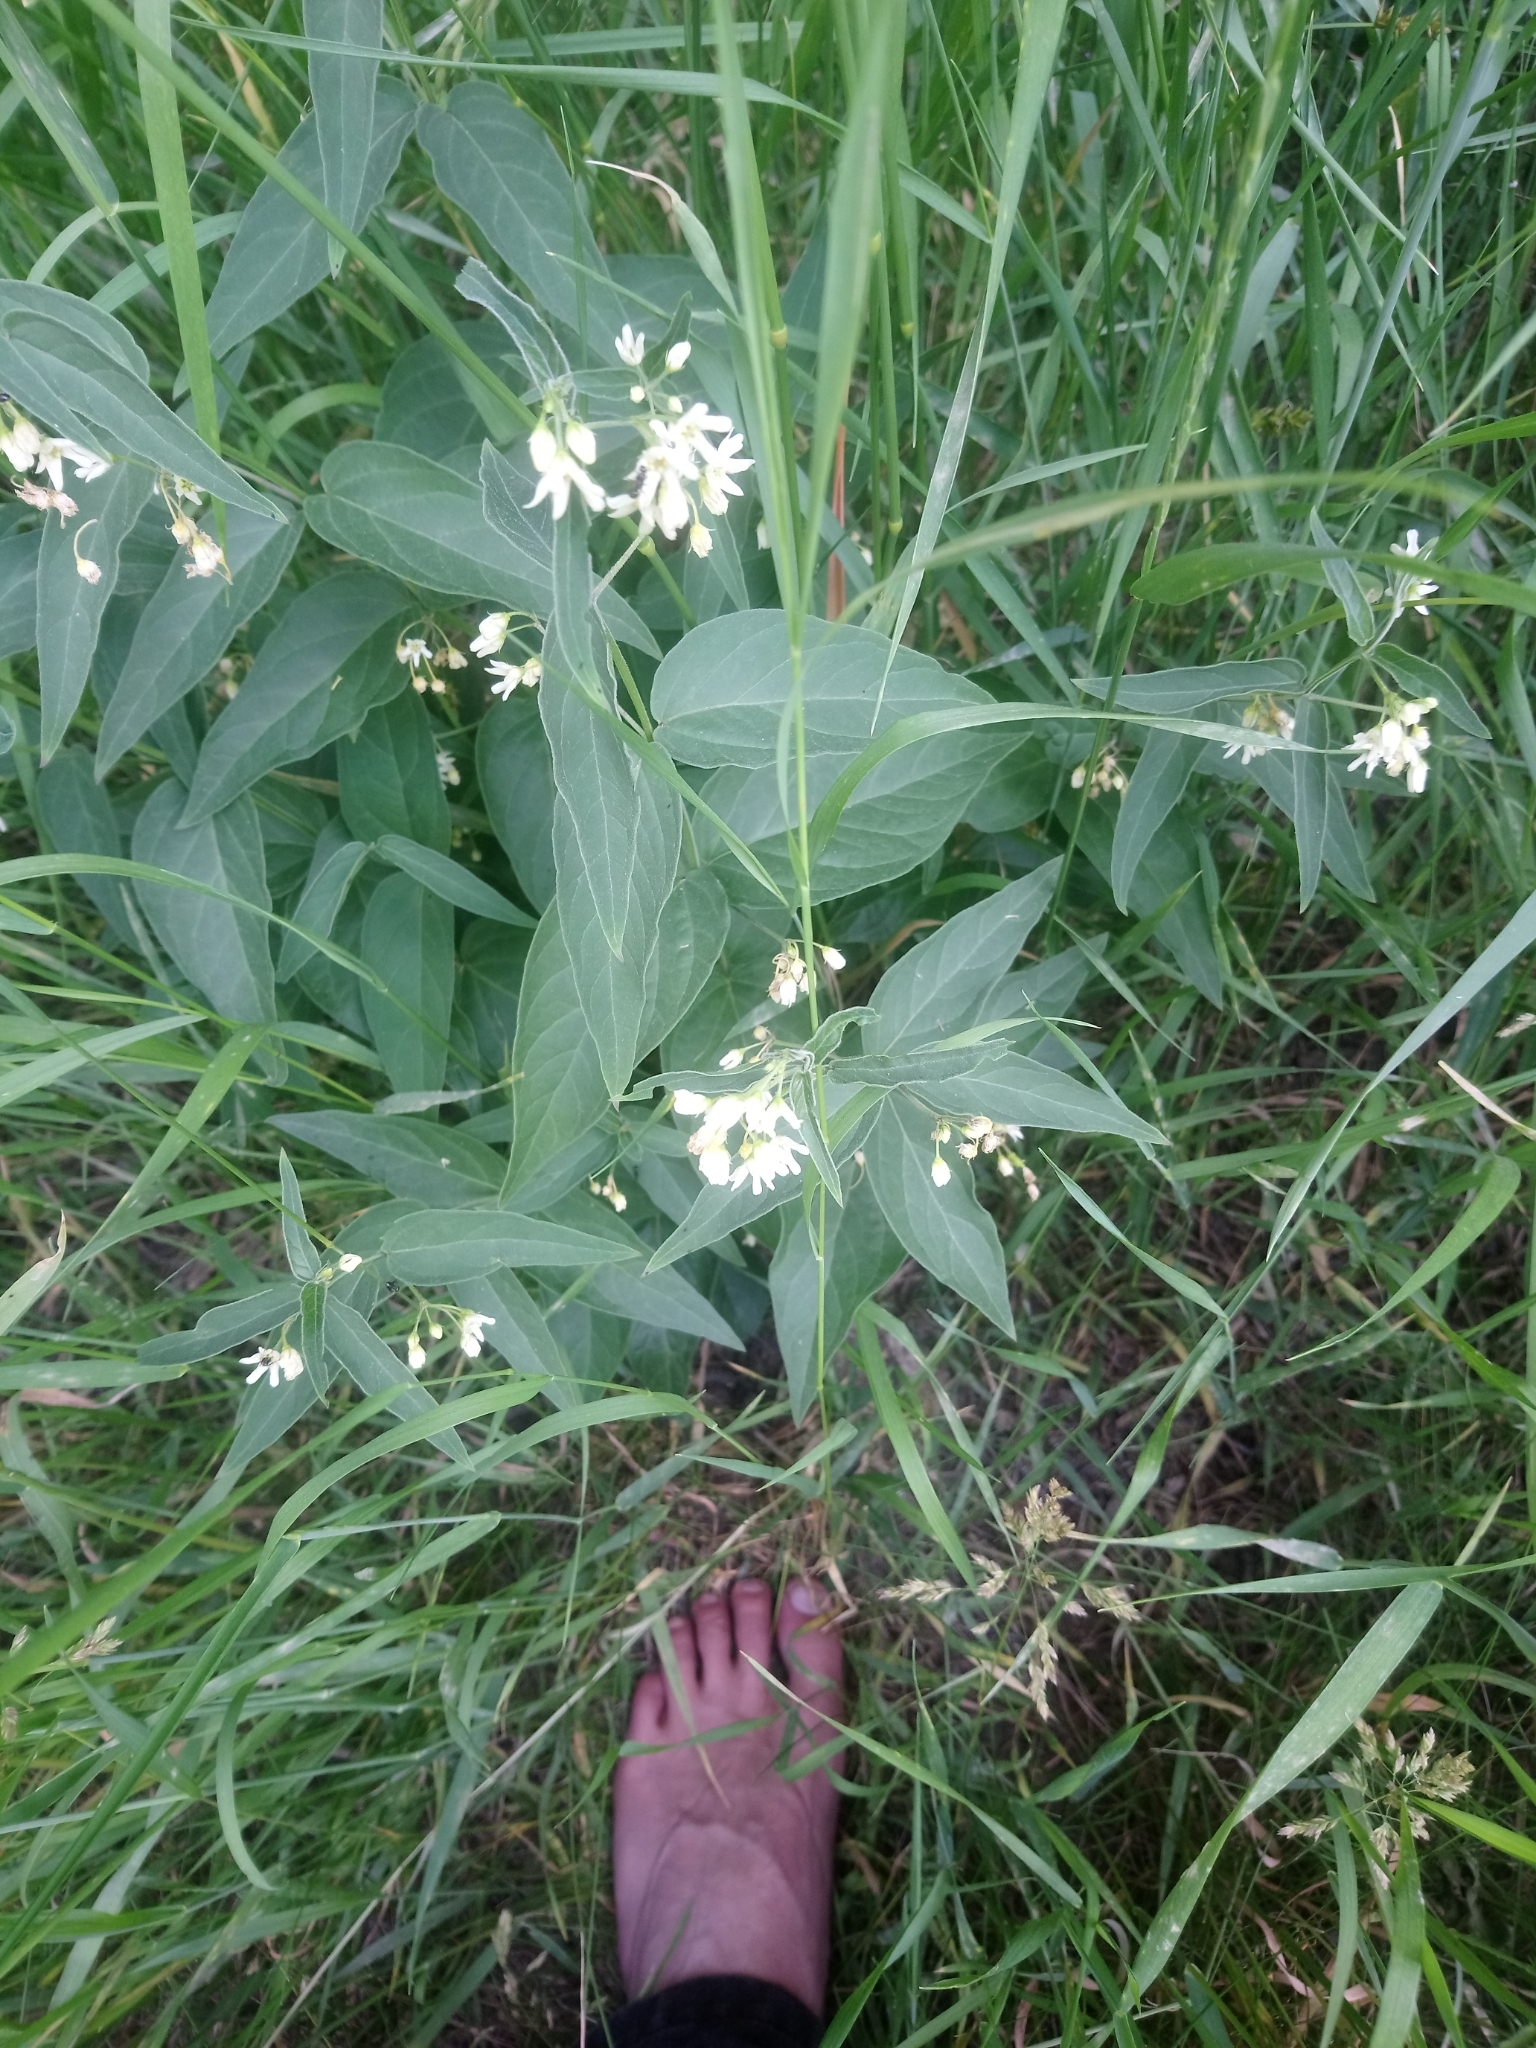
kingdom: Plantae
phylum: Tracheophyta
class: Magnoliopsida
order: Gentianales
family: Apocynaceae
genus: Vincetoxicum
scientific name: Vincetoxicum hirundinaria
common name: White swallowwort
